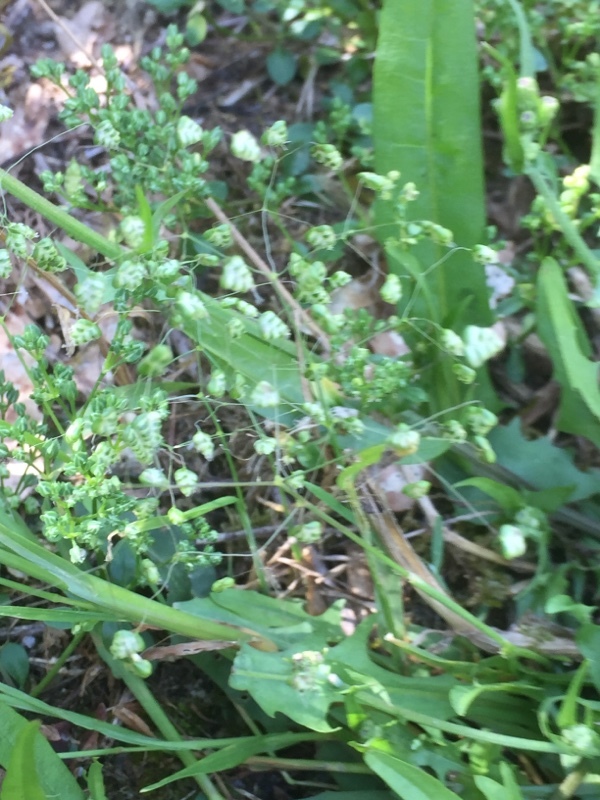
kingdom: Plantae
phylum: Tracheophyta
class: Liliopsida
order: Poales
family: Poaceae
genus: Briza
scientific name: Briza minor
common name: Lesser quaking-grass
